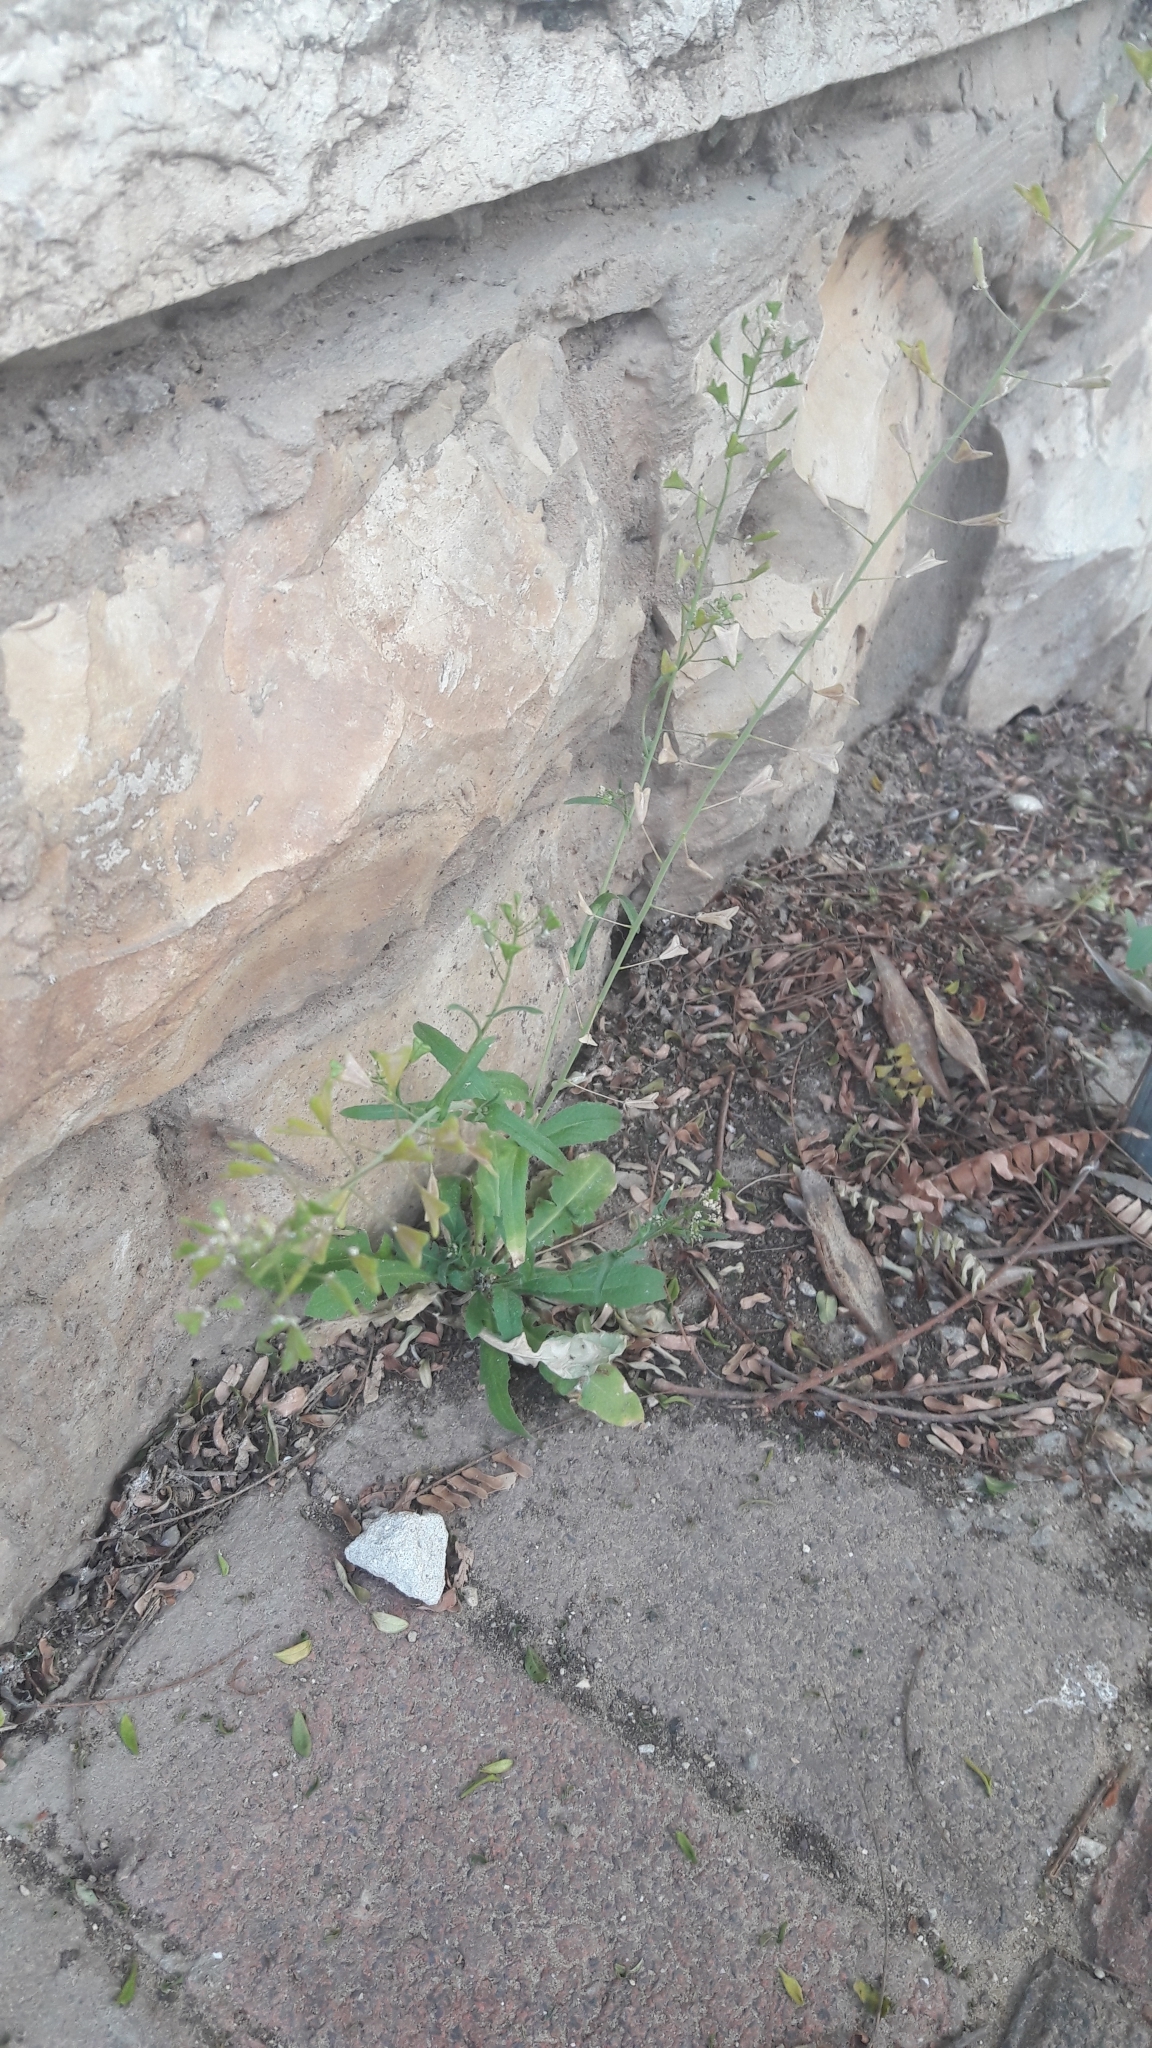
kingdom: Plantae
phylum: Tracheophyta
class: Magnoliopsida
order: Brassicales
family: Brassicaceae
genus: Capsella
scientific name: Capsella bursa-pastoris
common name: Shepherd's purse
